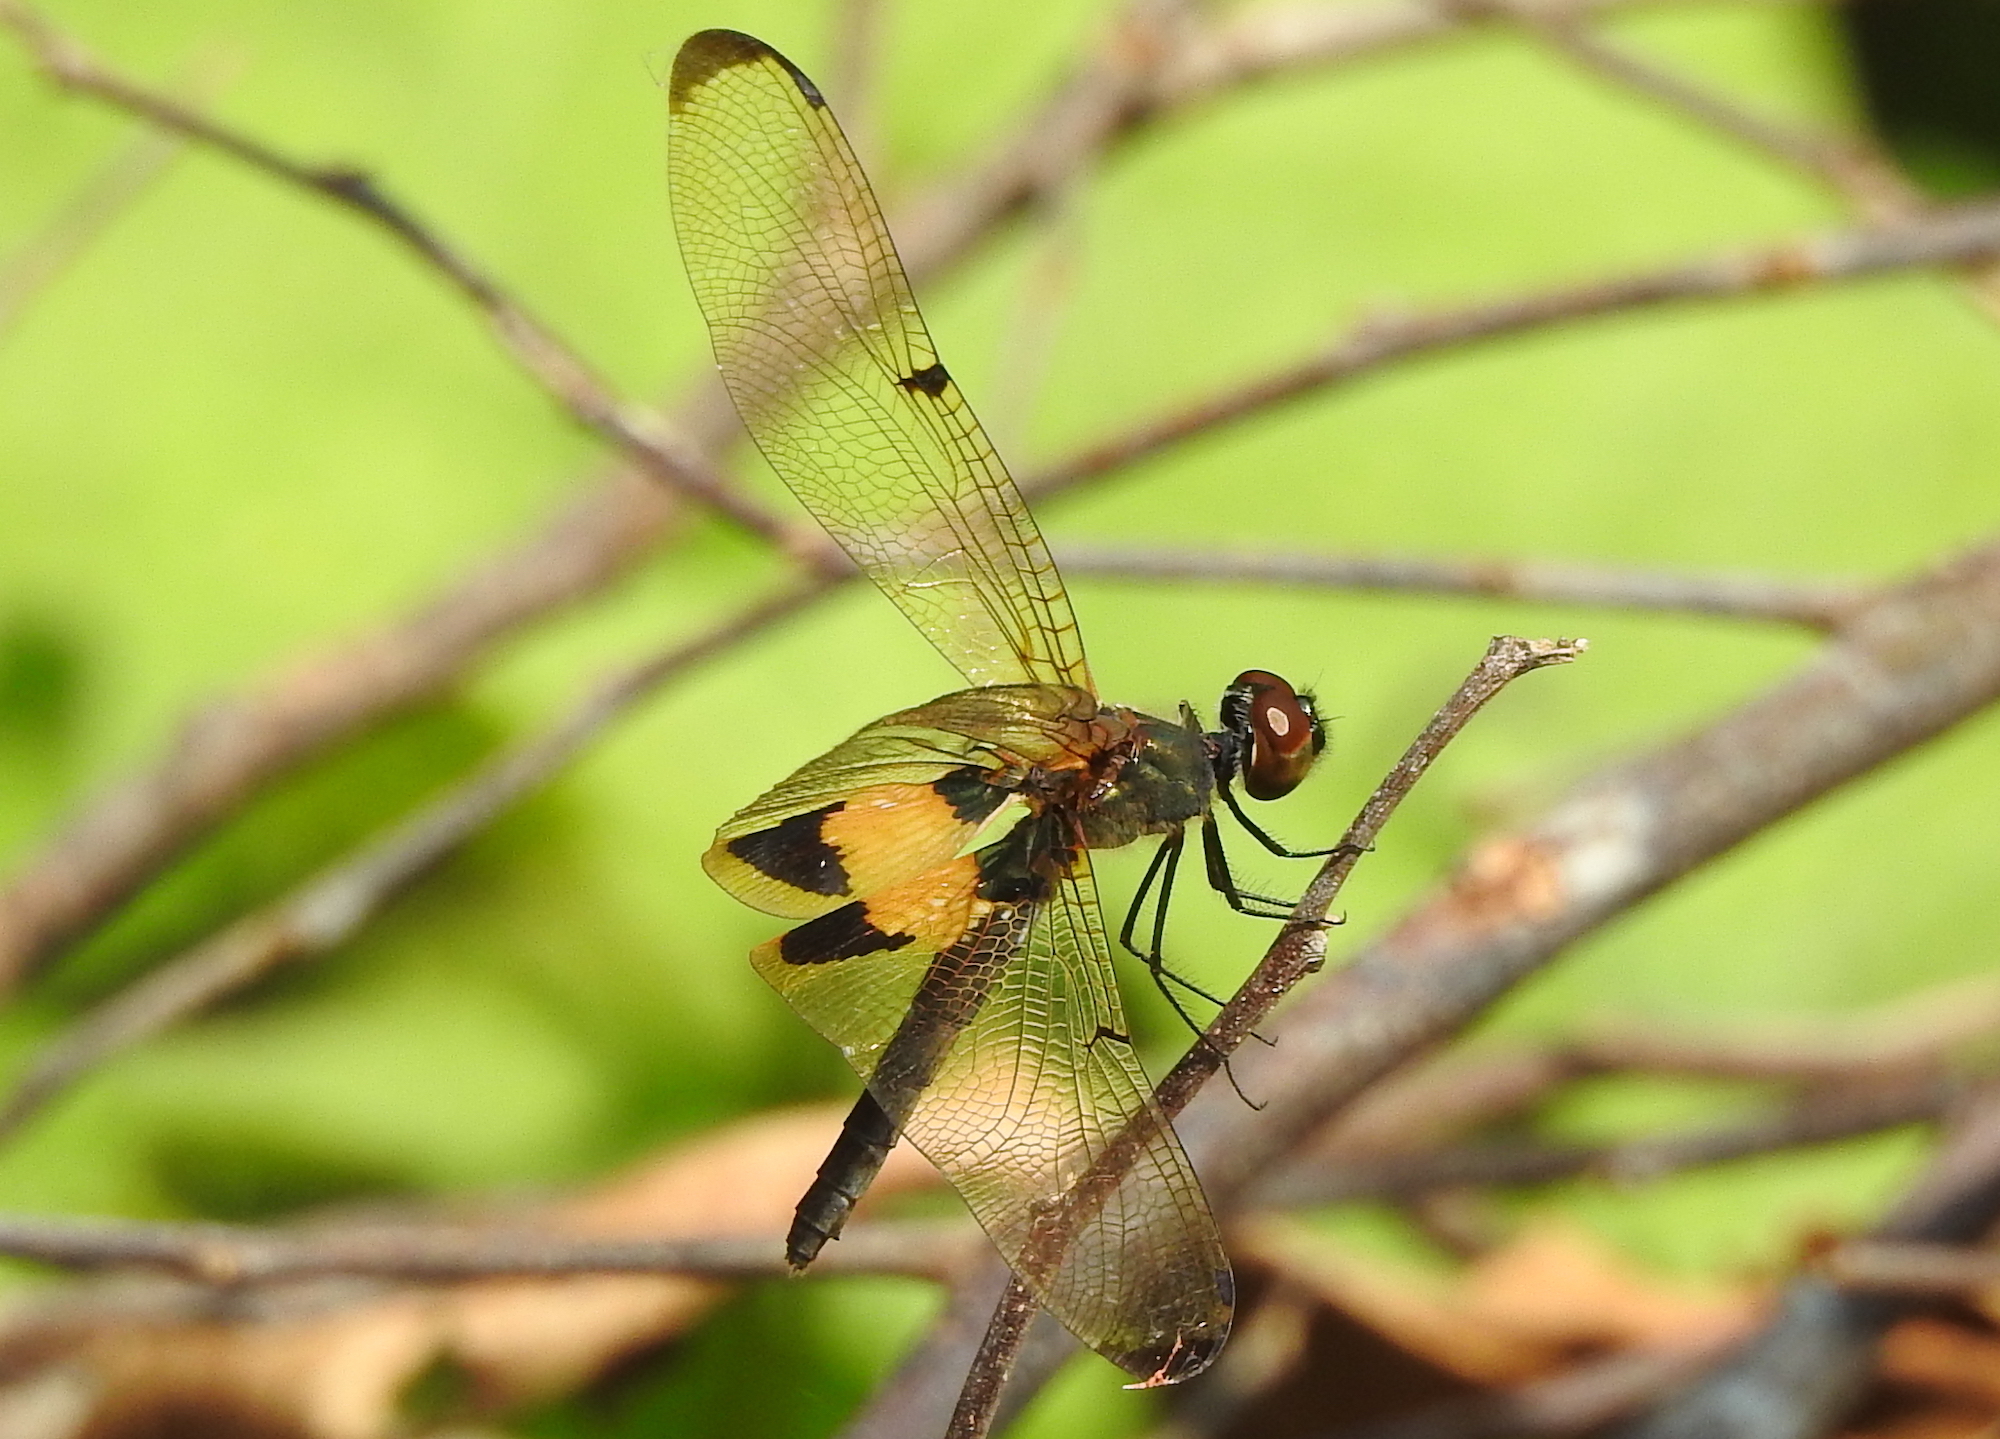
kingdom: Animalia
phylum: Arthropoda
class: Insecta
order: Odonata
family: Libellulidae
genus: Rhyothemis
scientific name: Rhyothemis phyllis
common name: Yellow-barred flutterer
